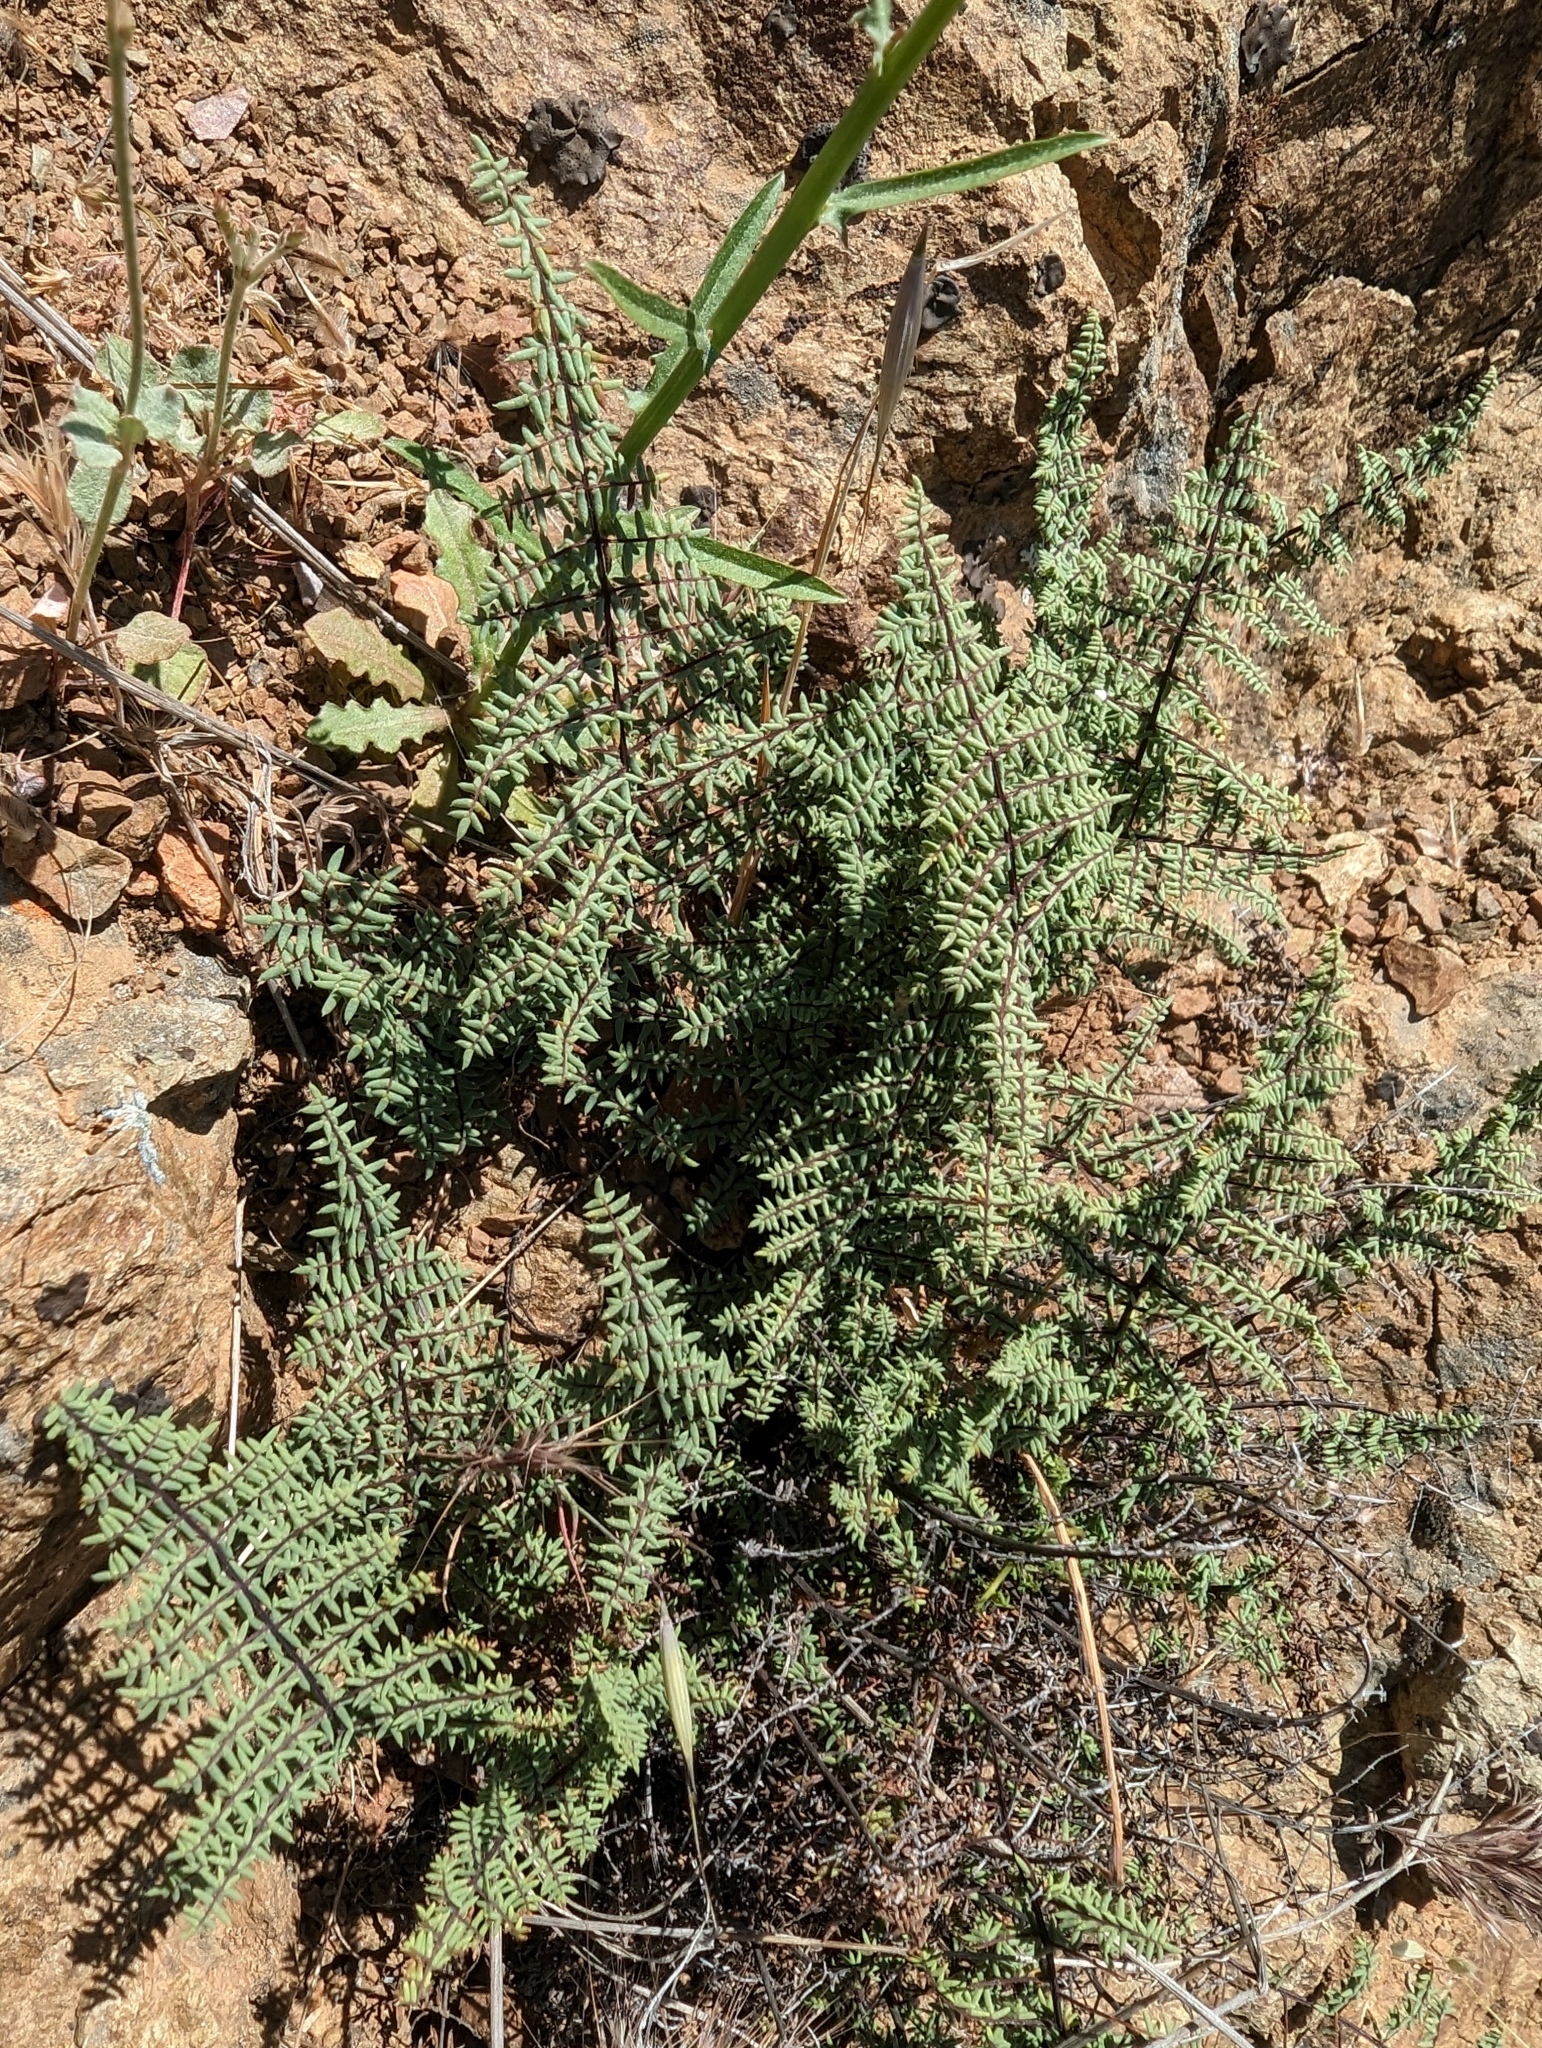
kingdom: Plantae
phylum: Tracheophyta
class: Polypodiopsida
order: Polypodiales
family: Pteridaceae
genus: Pellaea
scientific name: Pellaea mucronata
